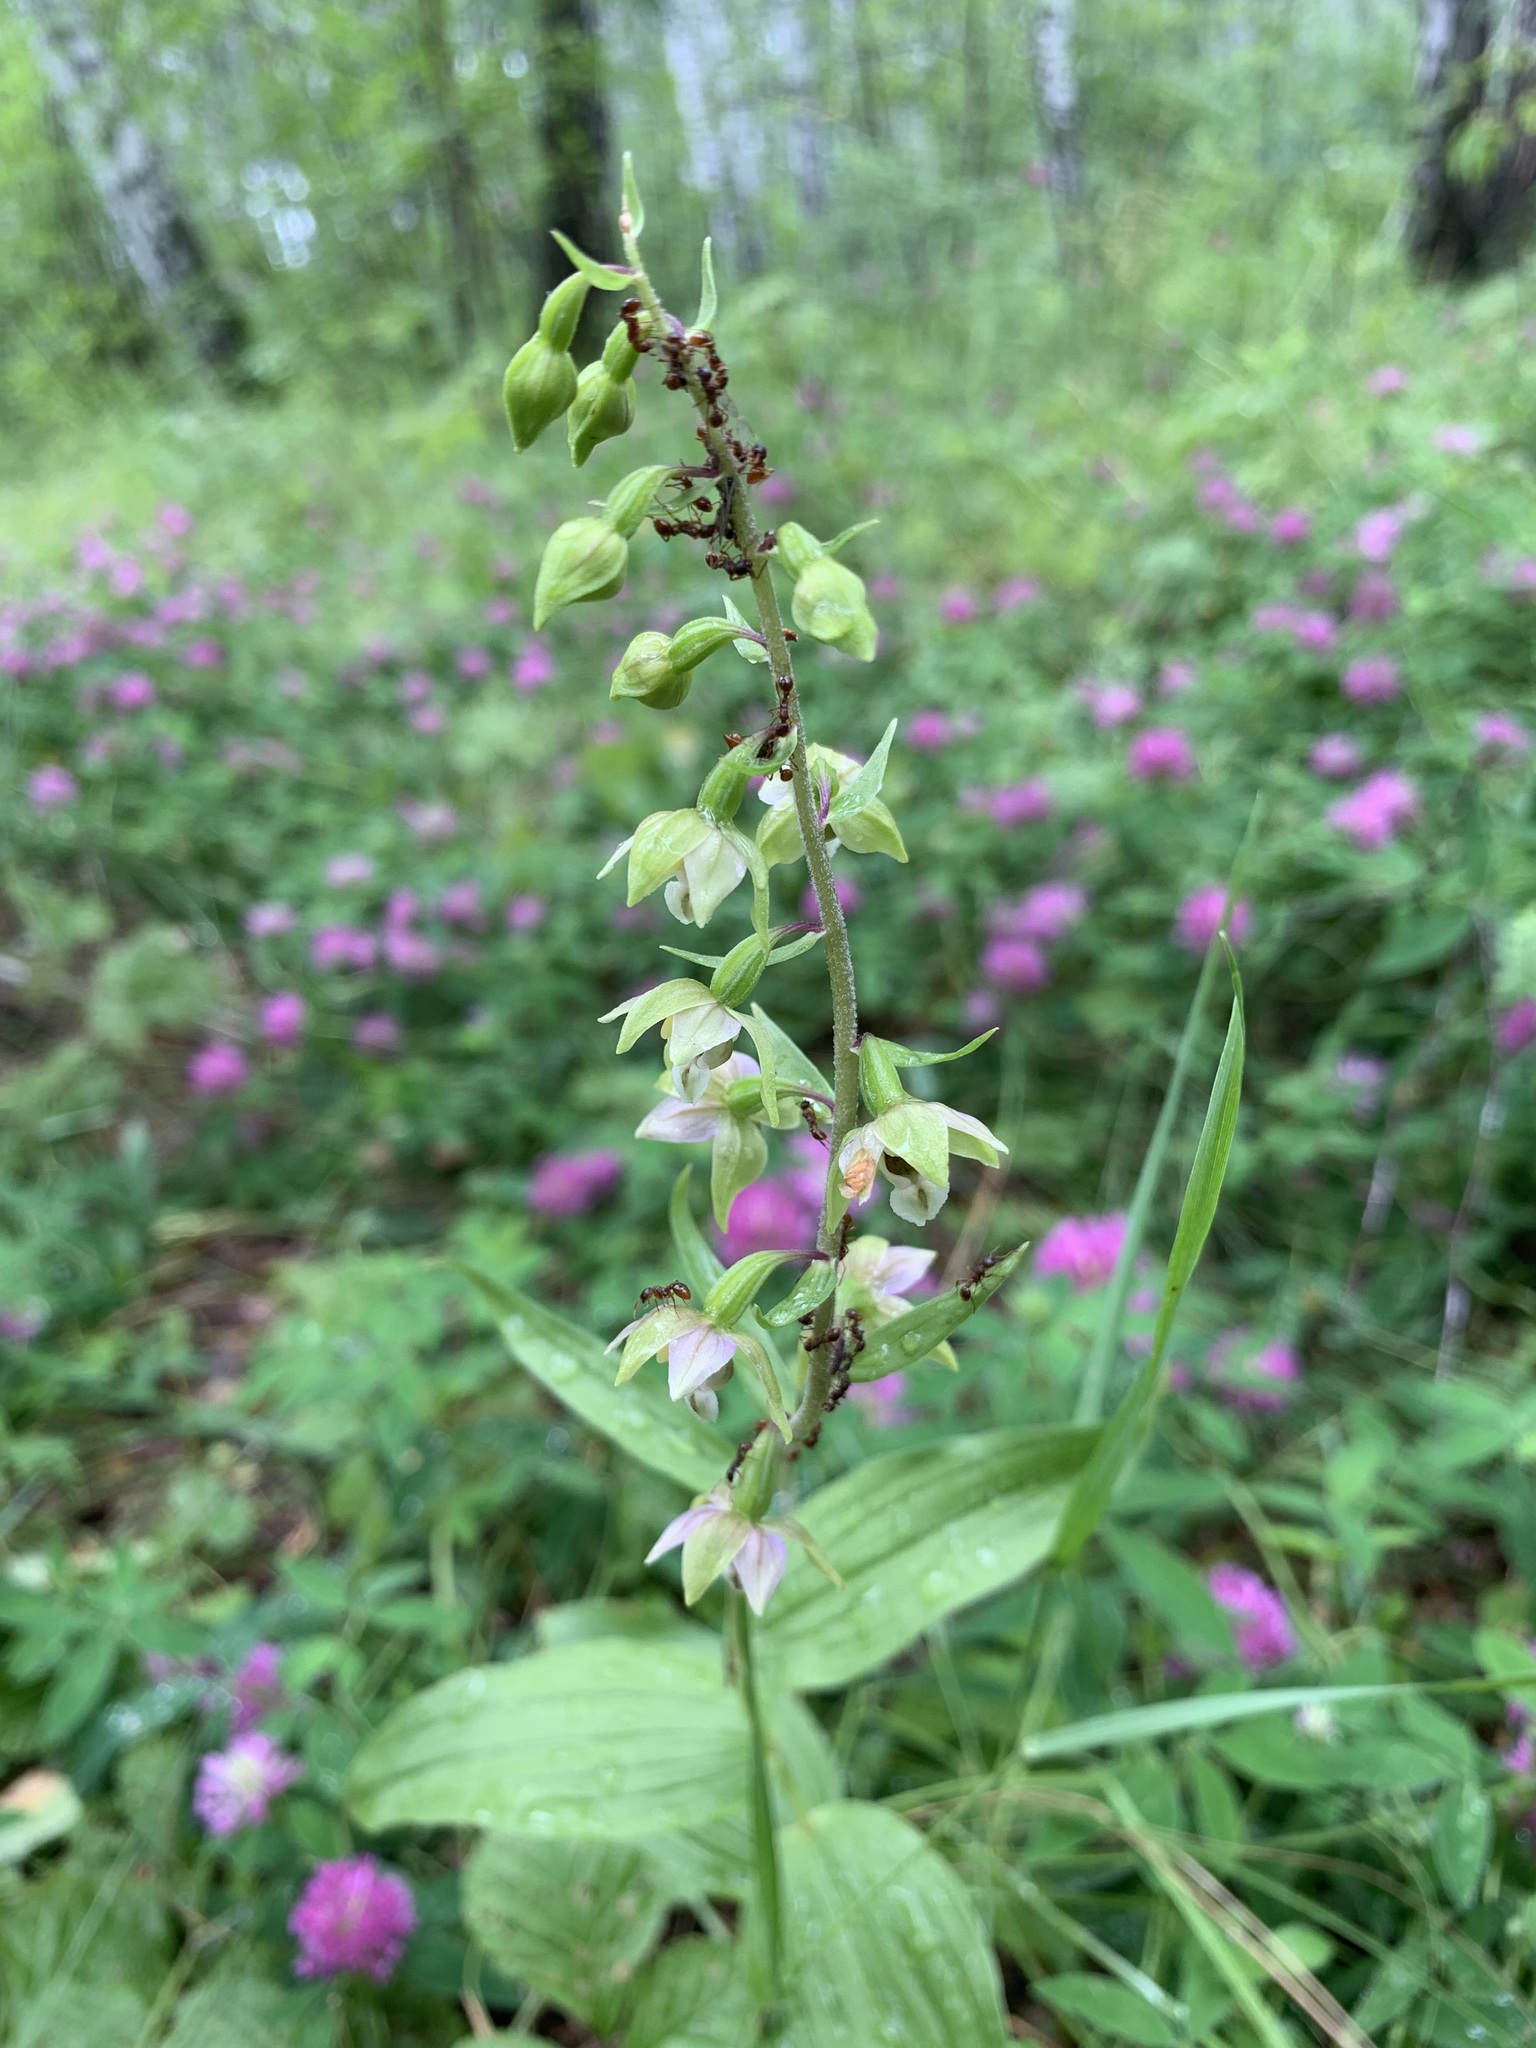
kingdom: Plantae
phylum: Tracheophyta
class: Liliopsida
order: Asparagales
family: Orchidaceae
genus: Epipactis
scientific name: Epipactis helleborine
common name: Broad-leaved helleborine
